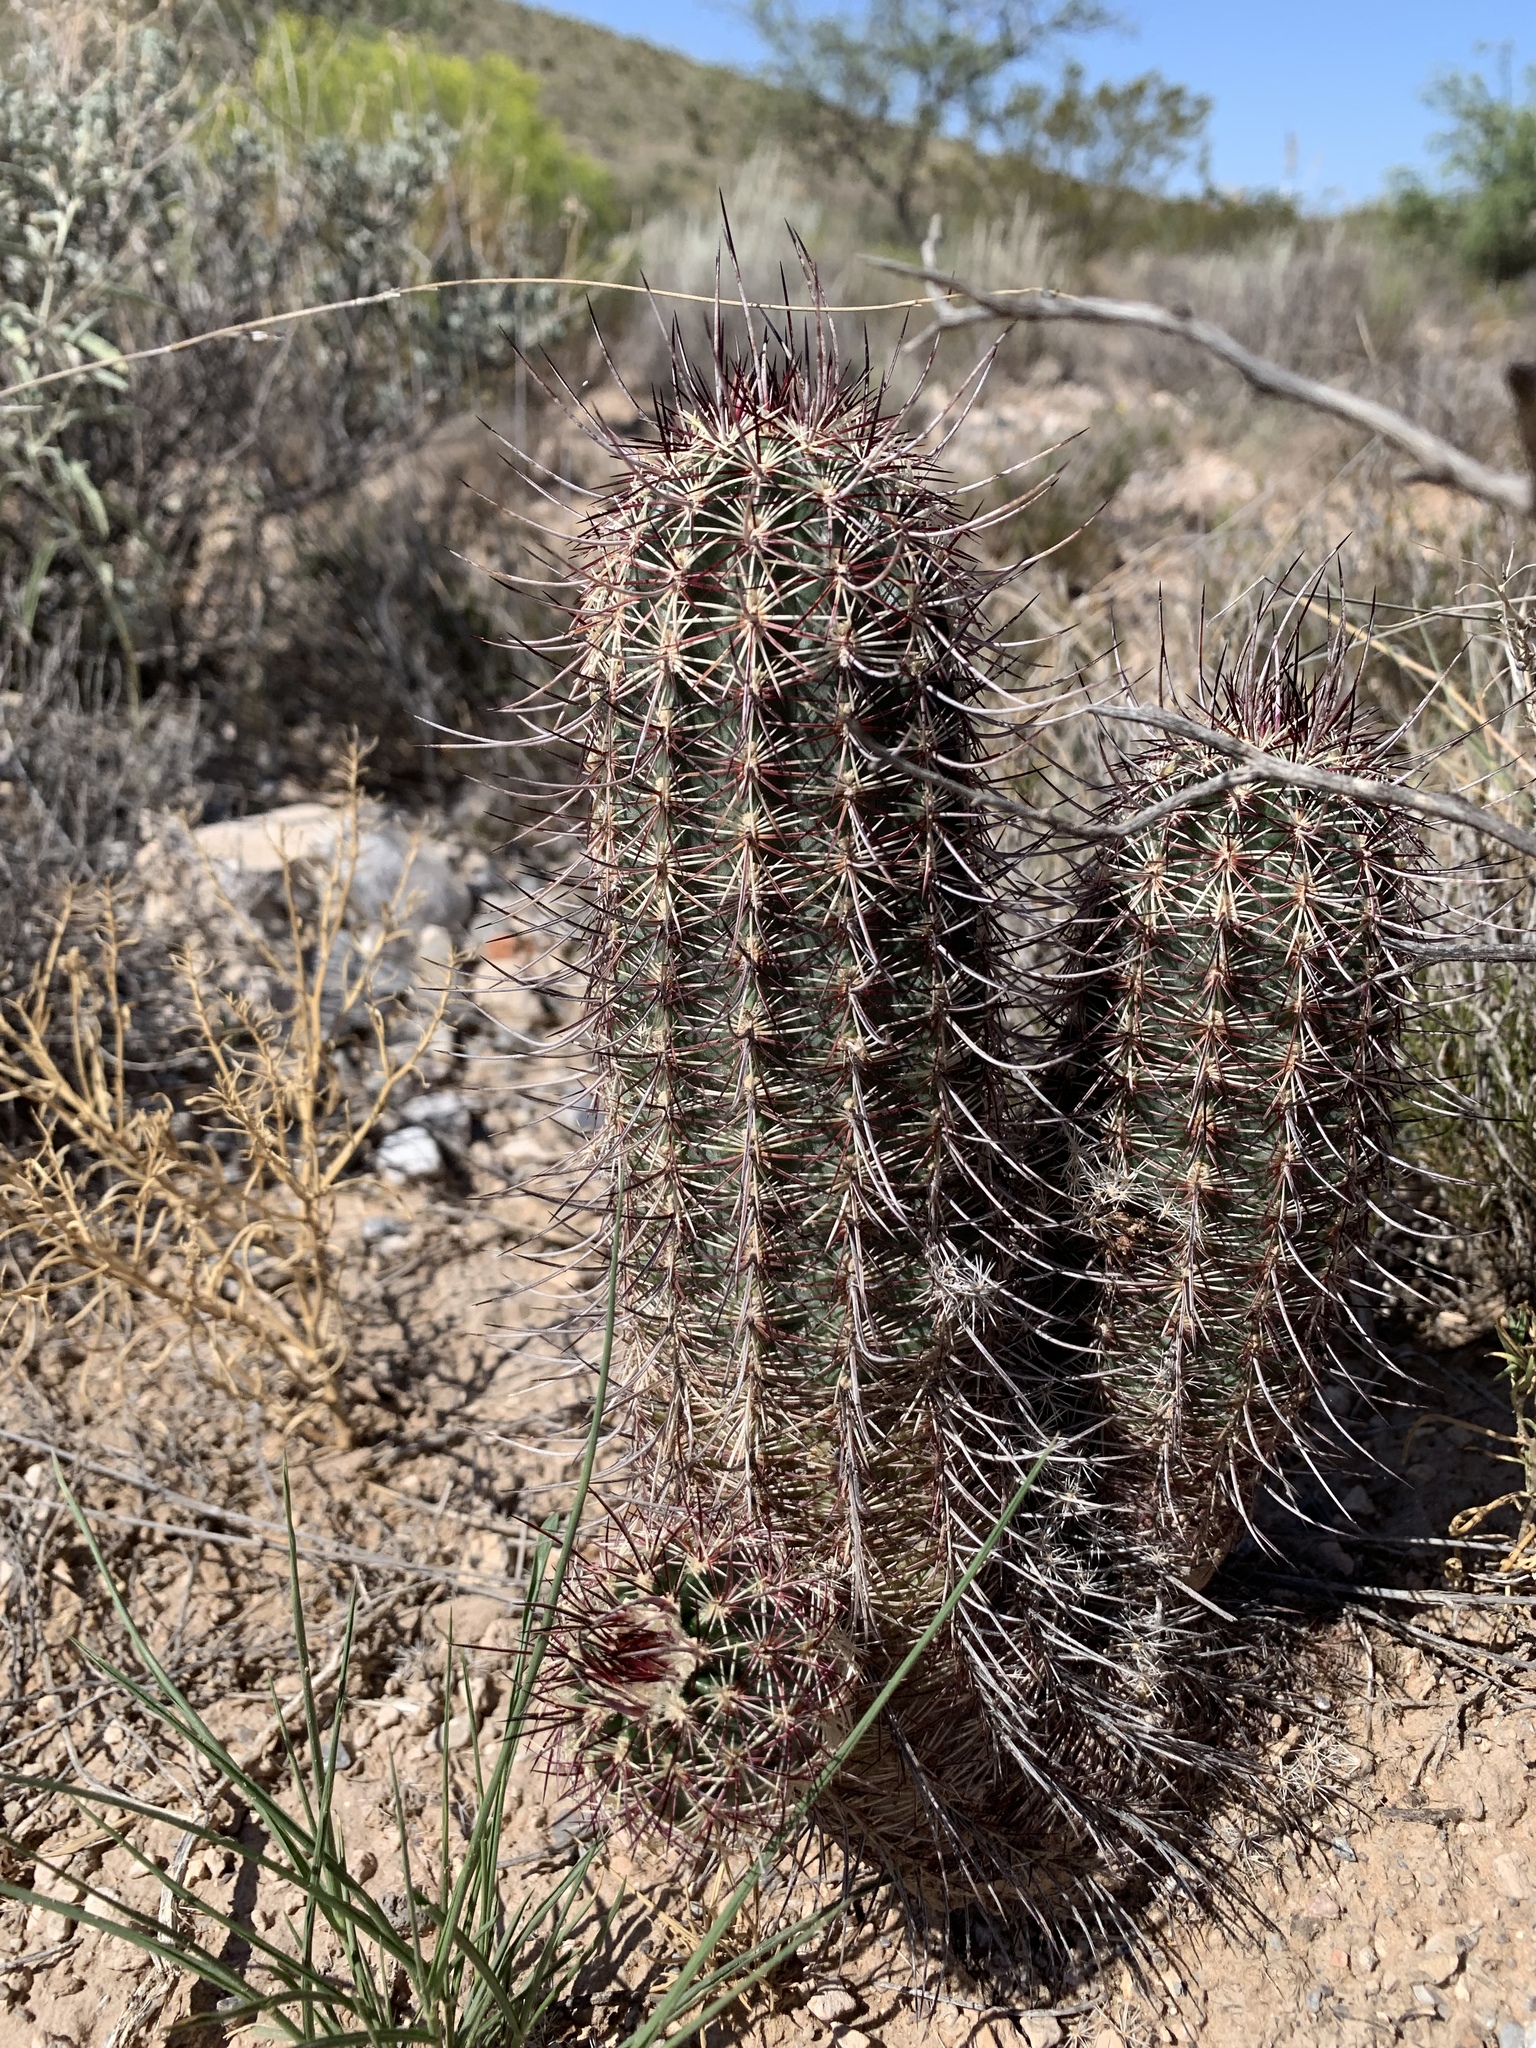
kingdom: Plantae
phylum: Tracheophyta
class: Magnoliopsida
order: Caryophyllales
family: Cactaceae
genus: Echinocereus
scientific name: Echinocereus viridiflorus
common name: Nylon hedgehog cactus
